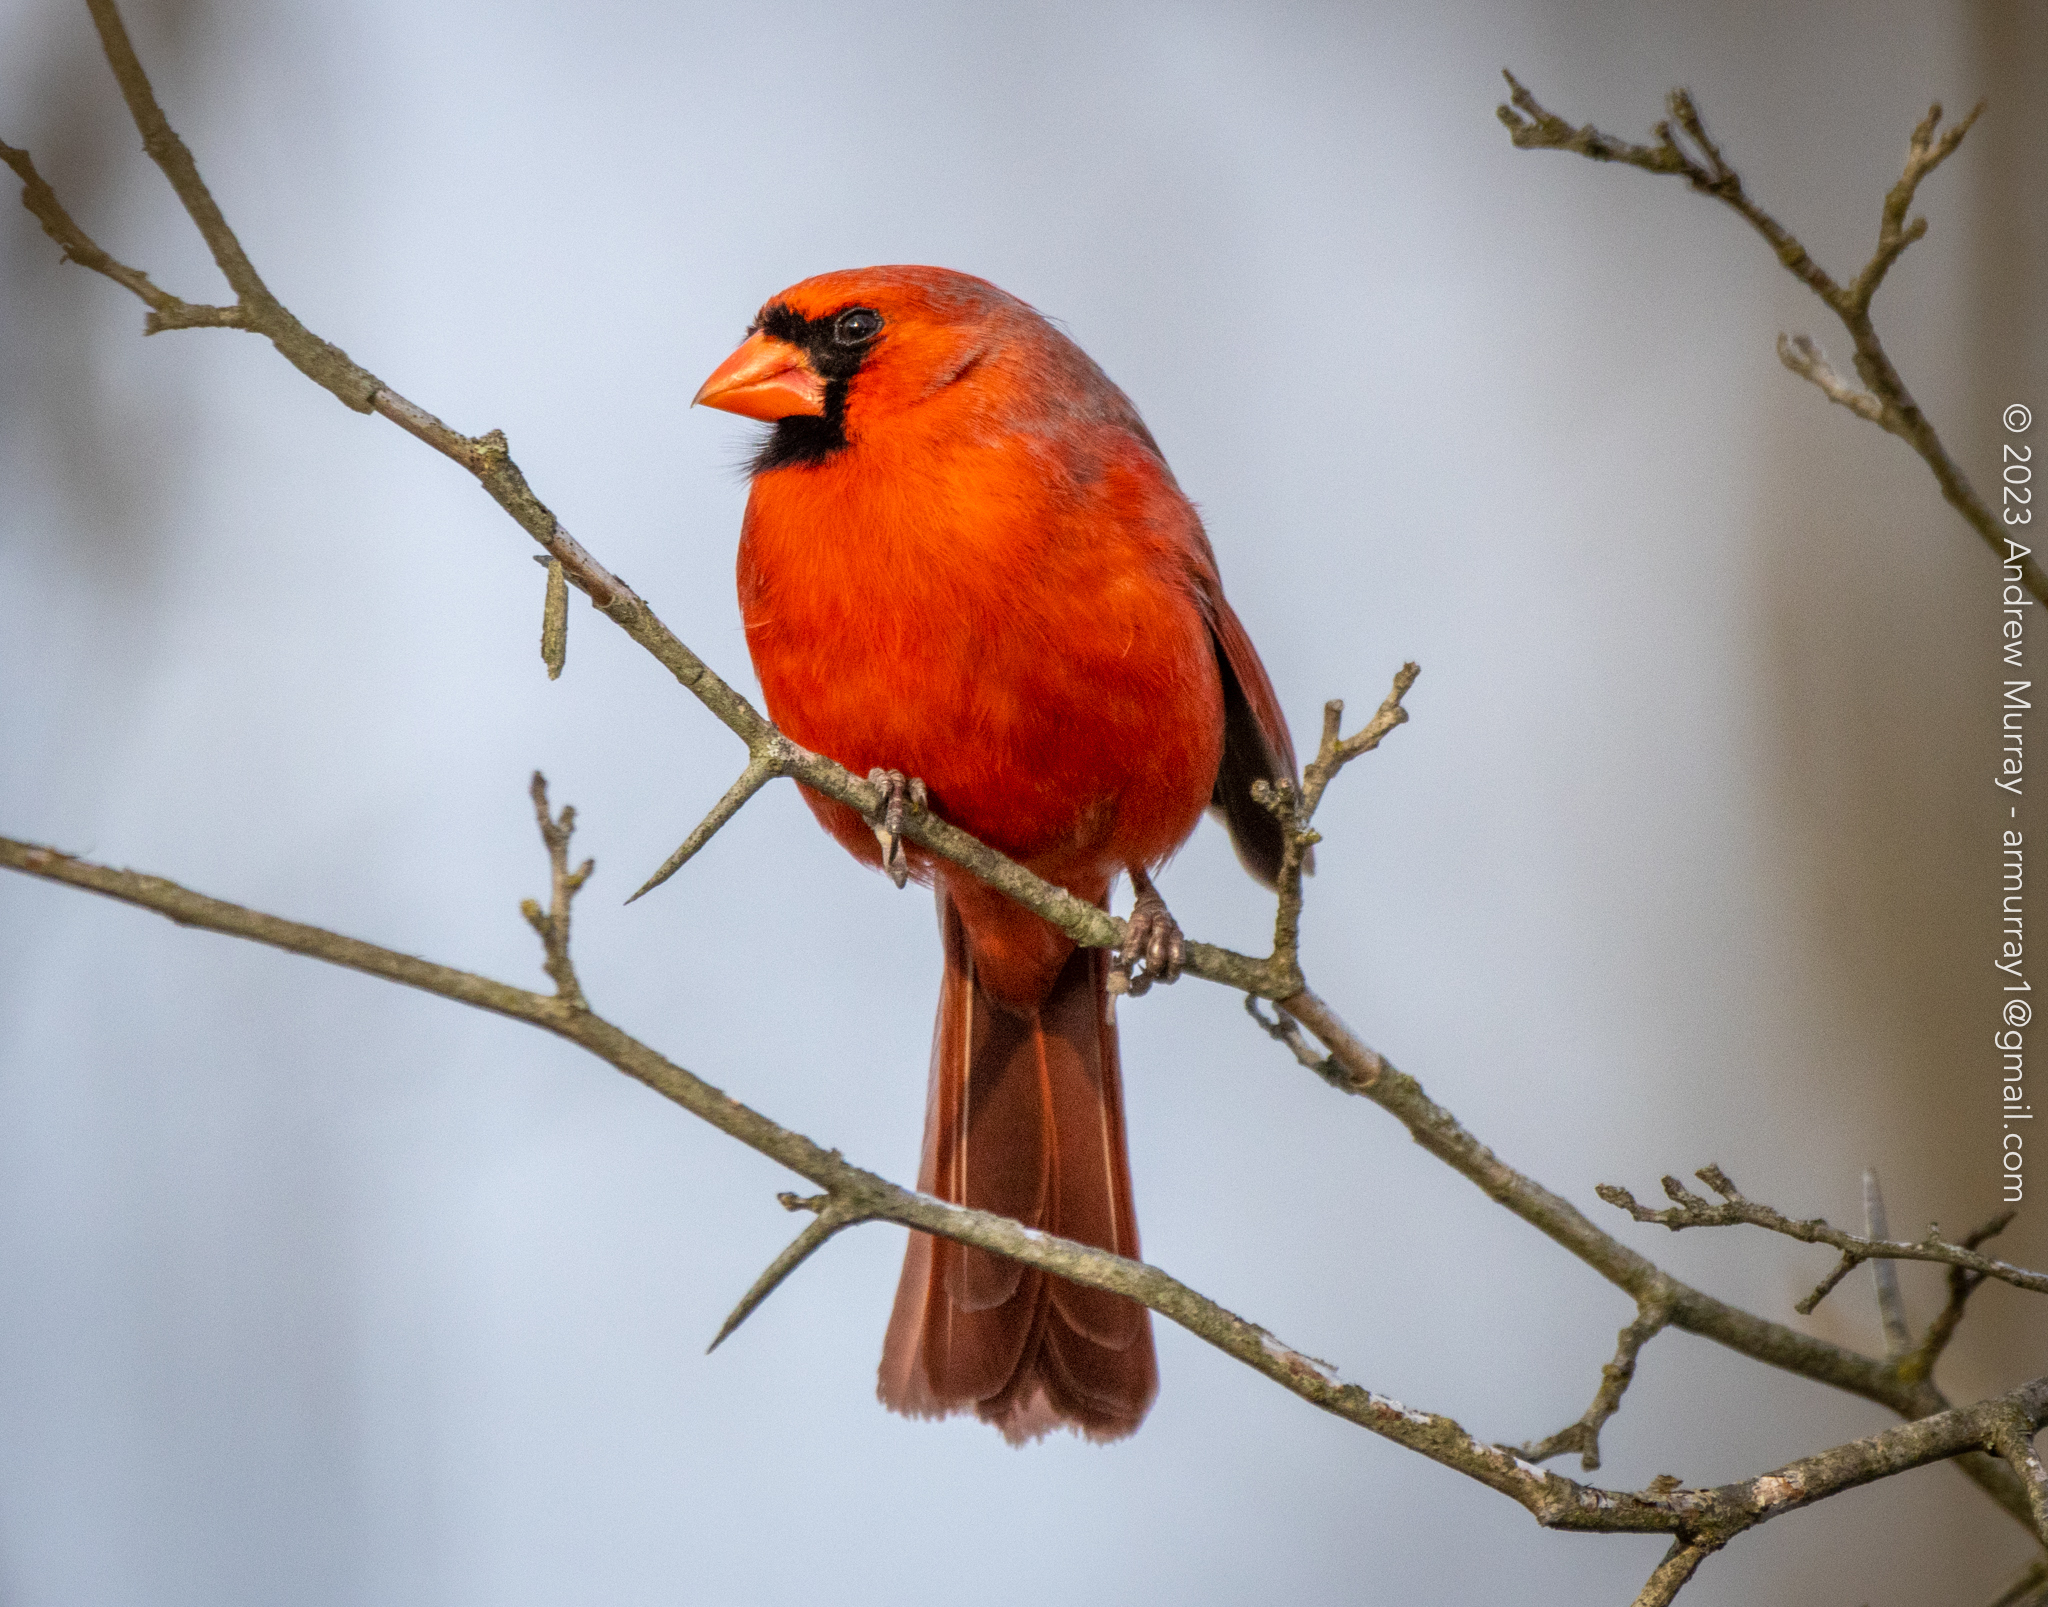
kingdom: Animalia
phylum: Chordata
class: Aves
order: Passeriformes
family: Cardinalidae
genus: Cardinalis
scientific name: Cardinalis cardinalis
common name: Northern cardinal
